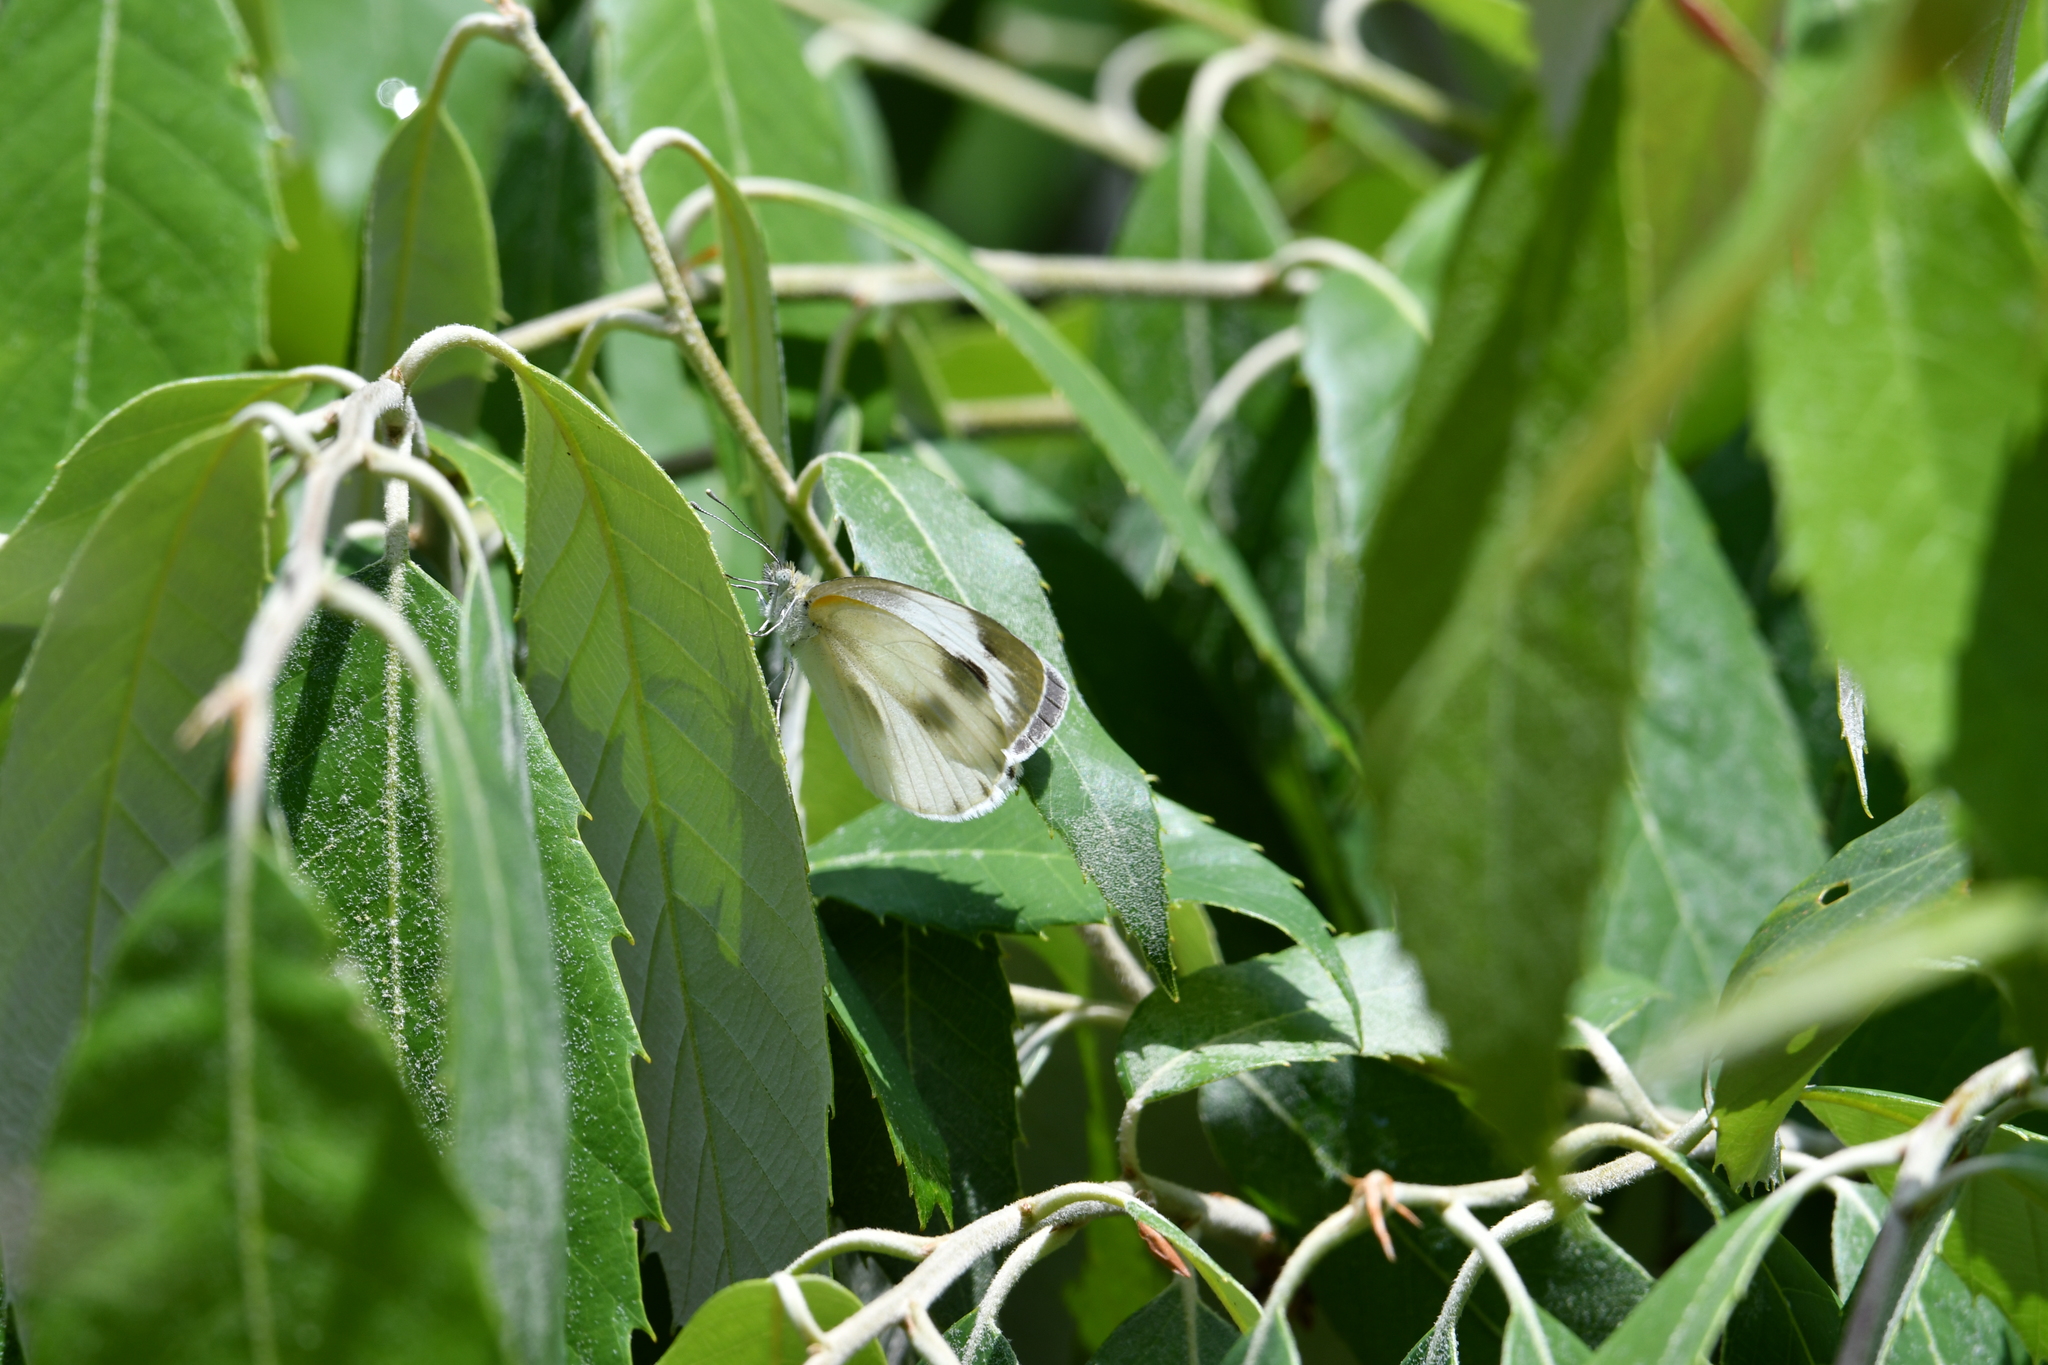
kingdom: Animalia
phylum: Arthropoda
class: Insecta
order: Lepidoptera
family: Pieridae
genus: Pieris
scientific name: Pieris canidia
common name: Indian cabbage white
